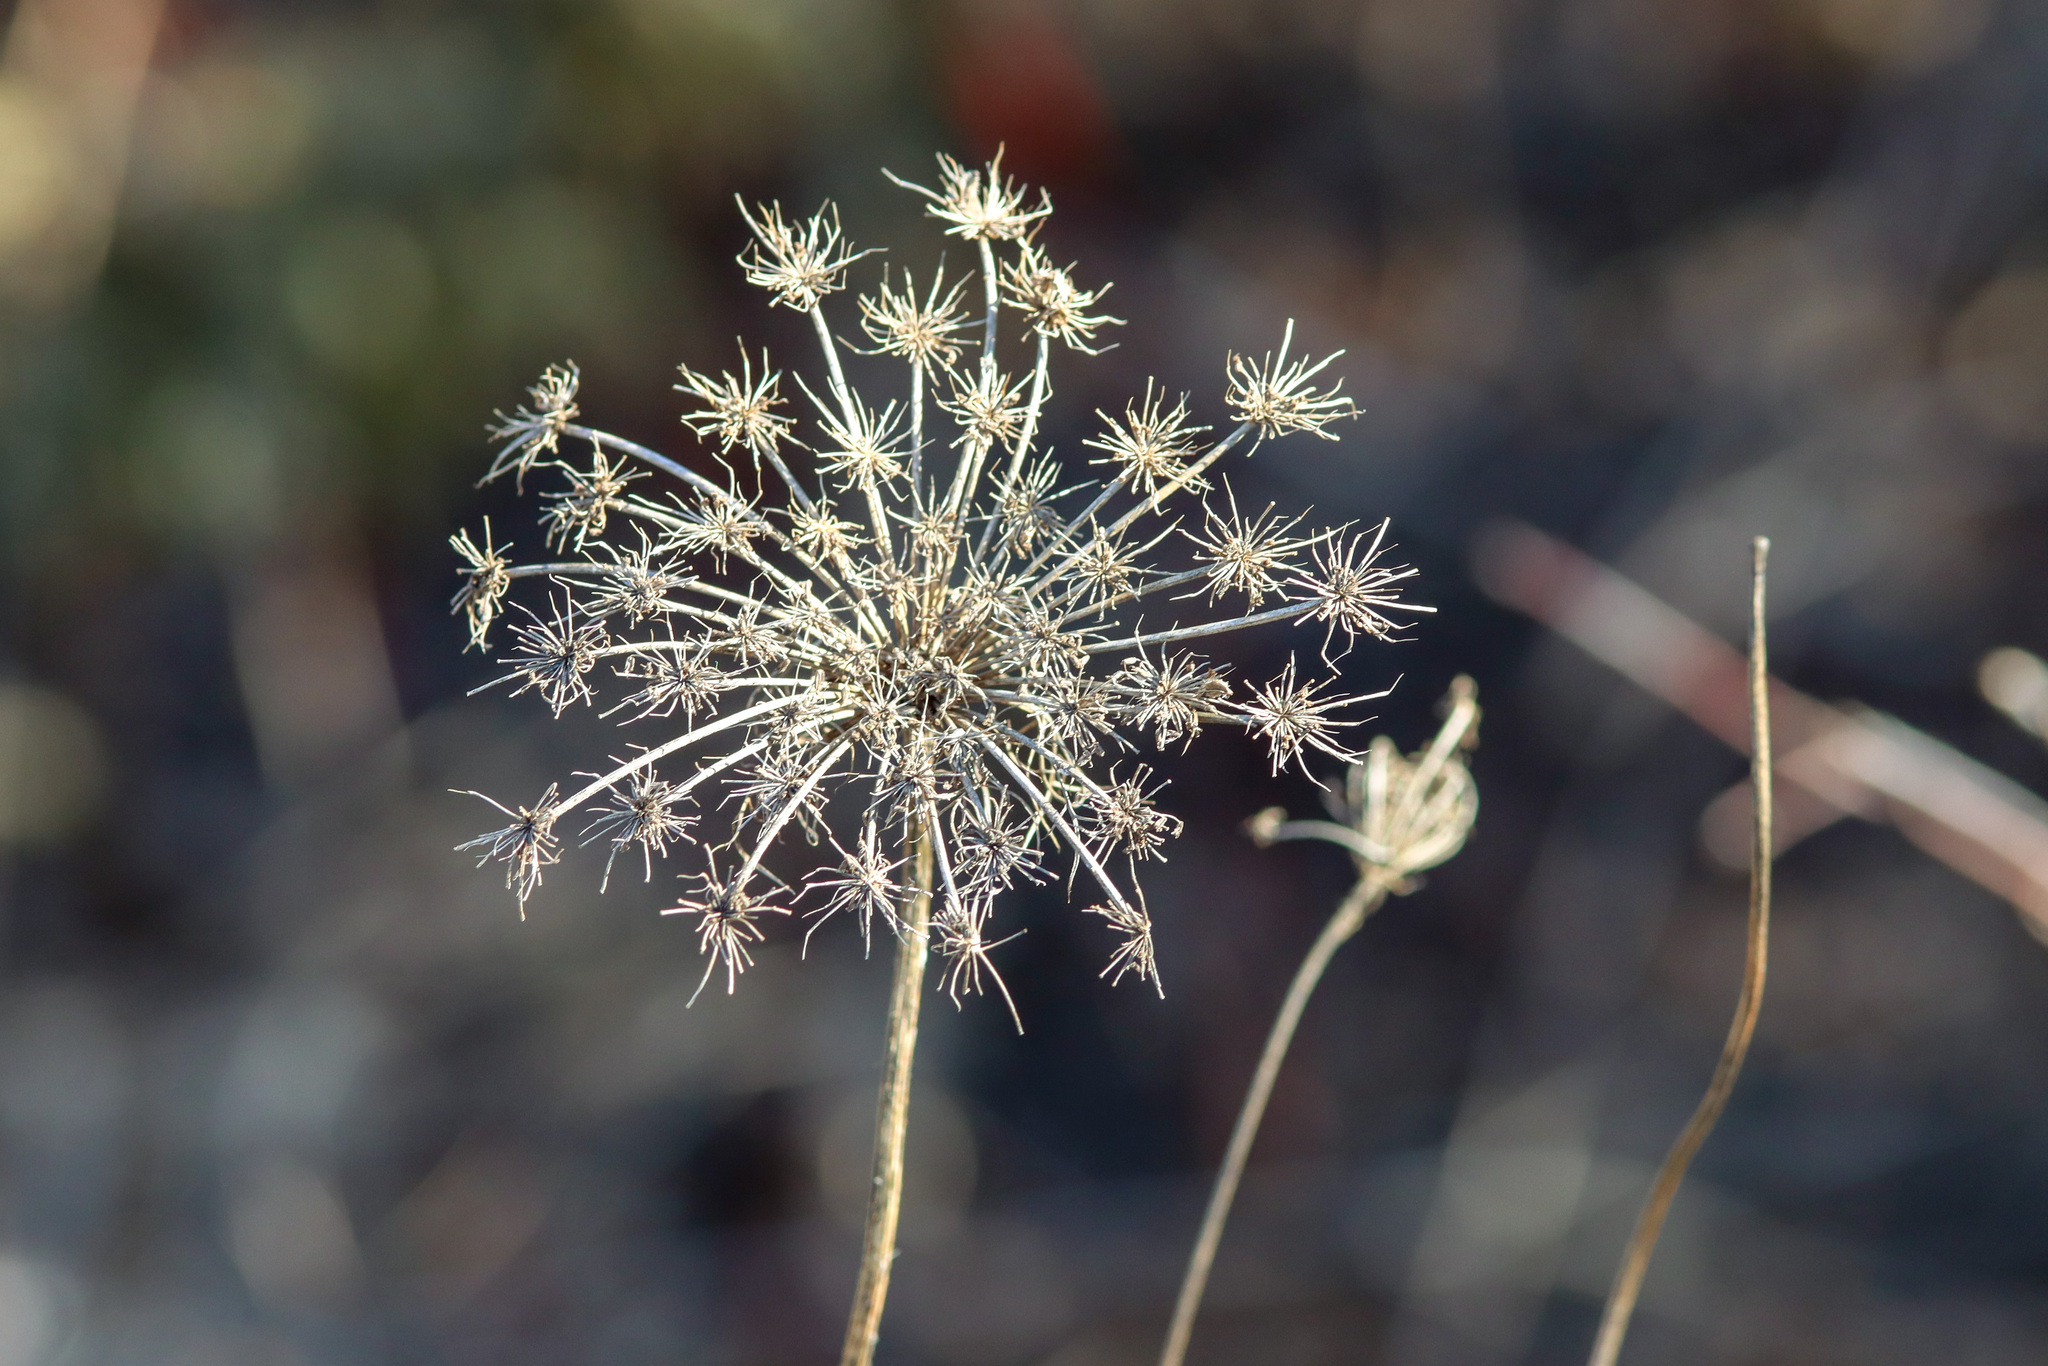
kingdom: Plantae
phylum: Tracheophyta
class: Magnoliopsida
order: Apiales
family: Apiaceae
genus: Daucus
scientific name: Daucus carota
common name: Wild carrot
